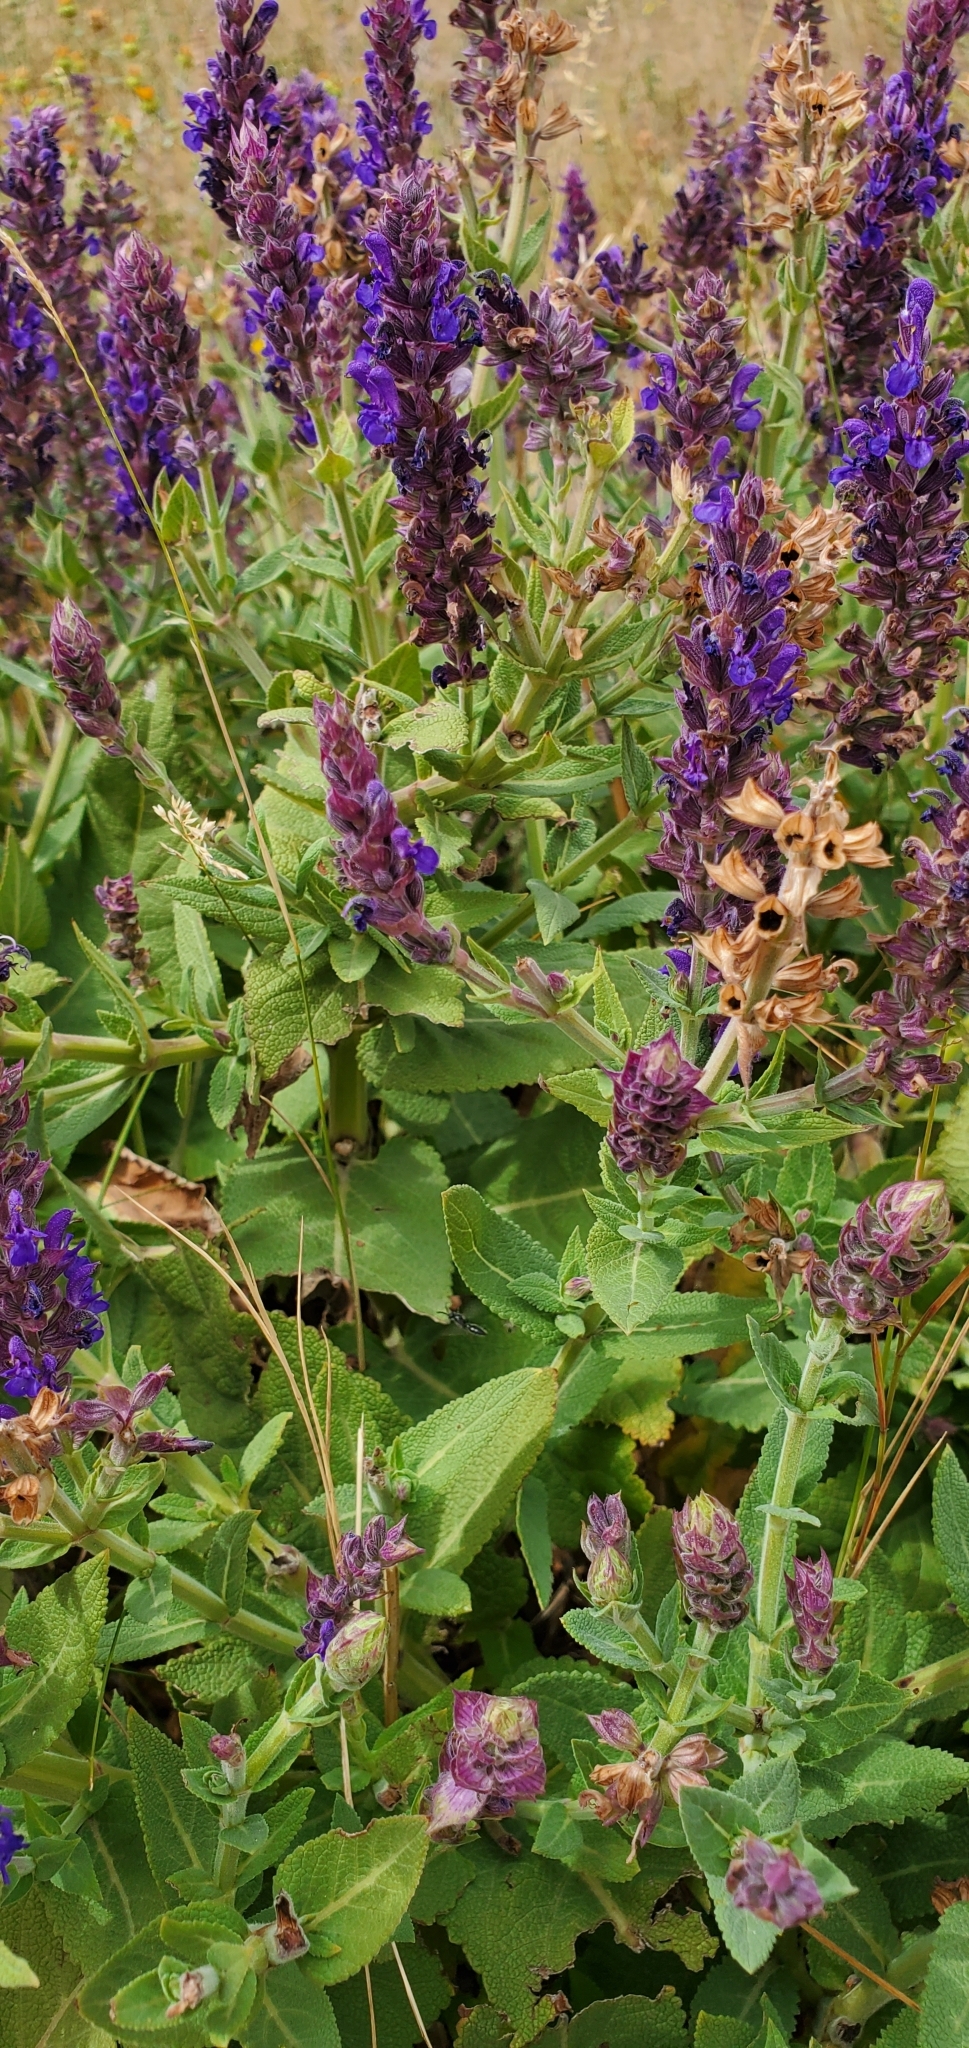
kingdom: Plantae
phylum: Tracheophyta
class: Magnoliopsida
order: Lamiales
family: Lamiaceae
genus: Salvia
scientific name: Salvia nemorosa
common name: Balkan clary
